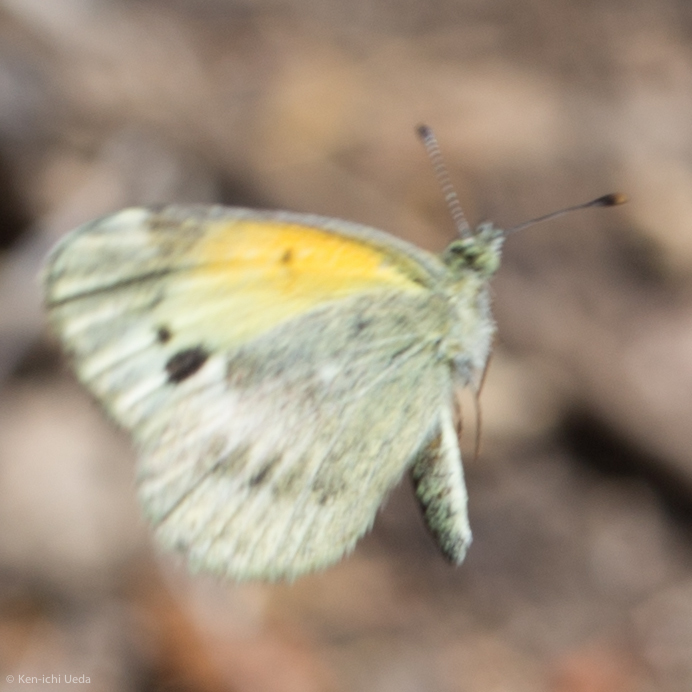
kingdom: Animalia
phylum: Arthropoda
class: Insecta
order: Lepidoptera
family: Pieridae
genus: Nathalis
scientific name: Nathalis iole
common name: Dainty sulphur
